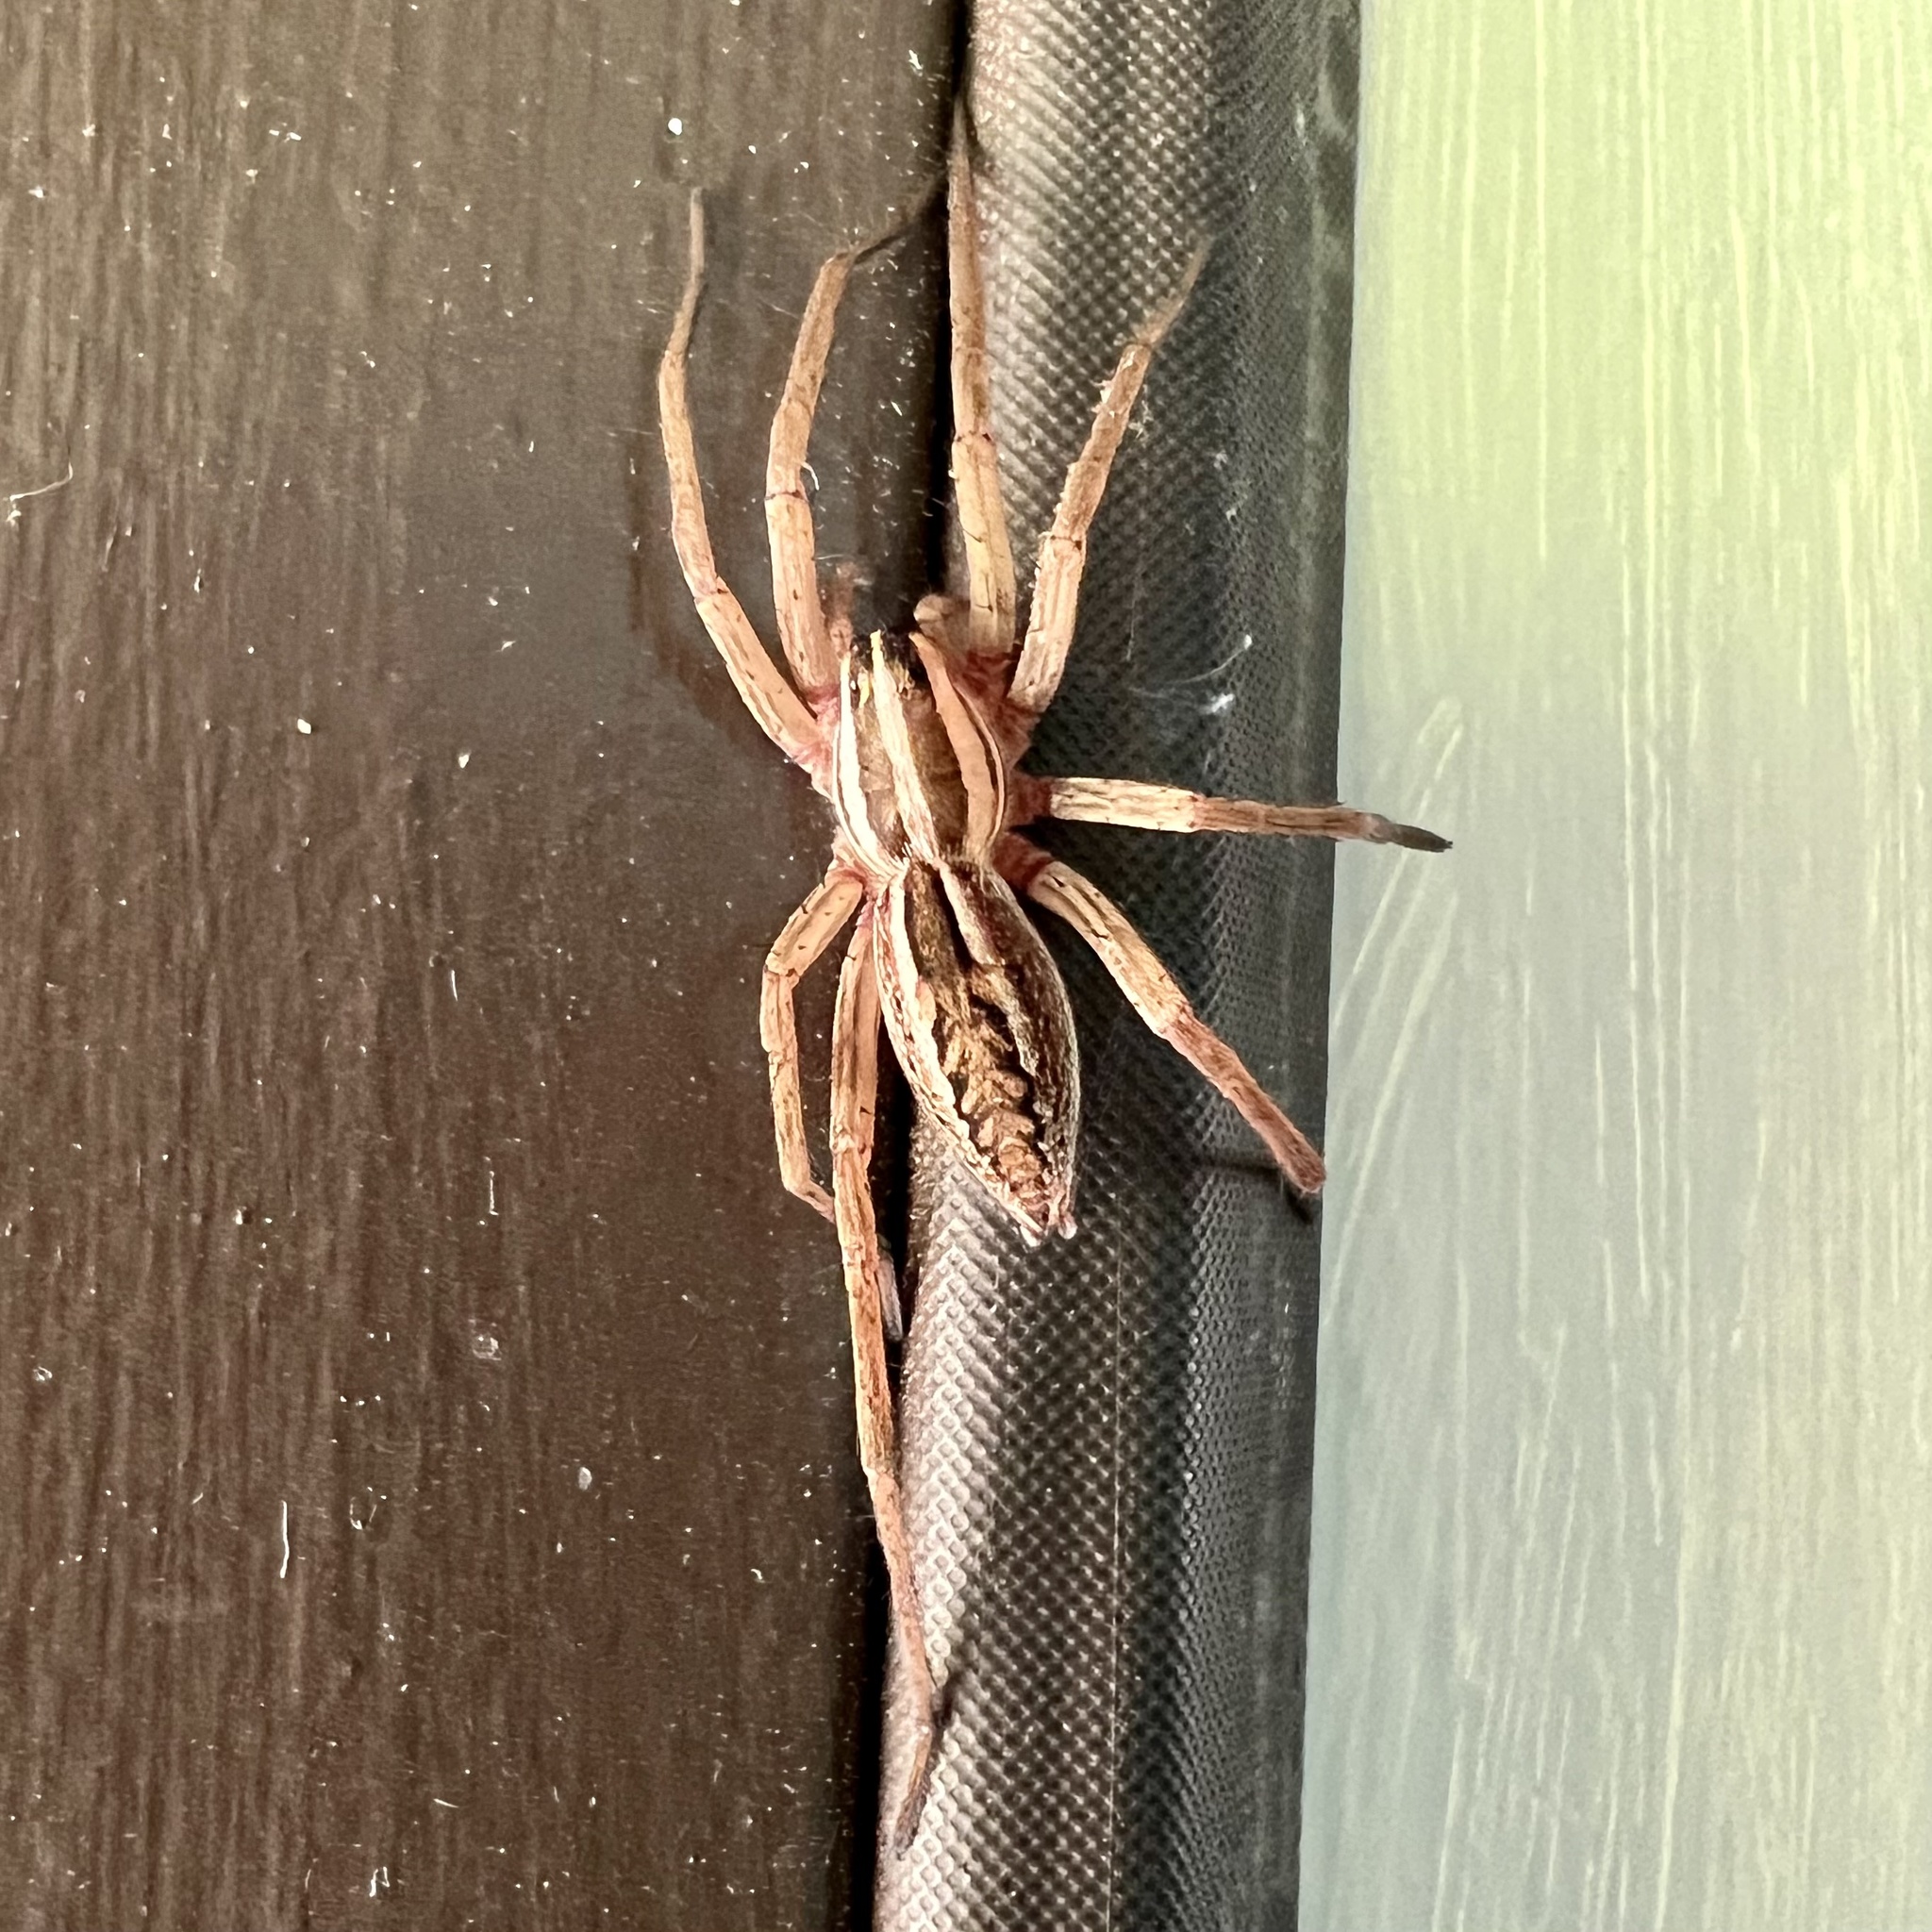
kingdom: Animalia
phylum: Arthropoda
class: Arachnida
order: Araneae
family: Lycosidae
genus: Rabidosa
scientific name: Rabidosa rabida
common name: Rabid wolf spider
